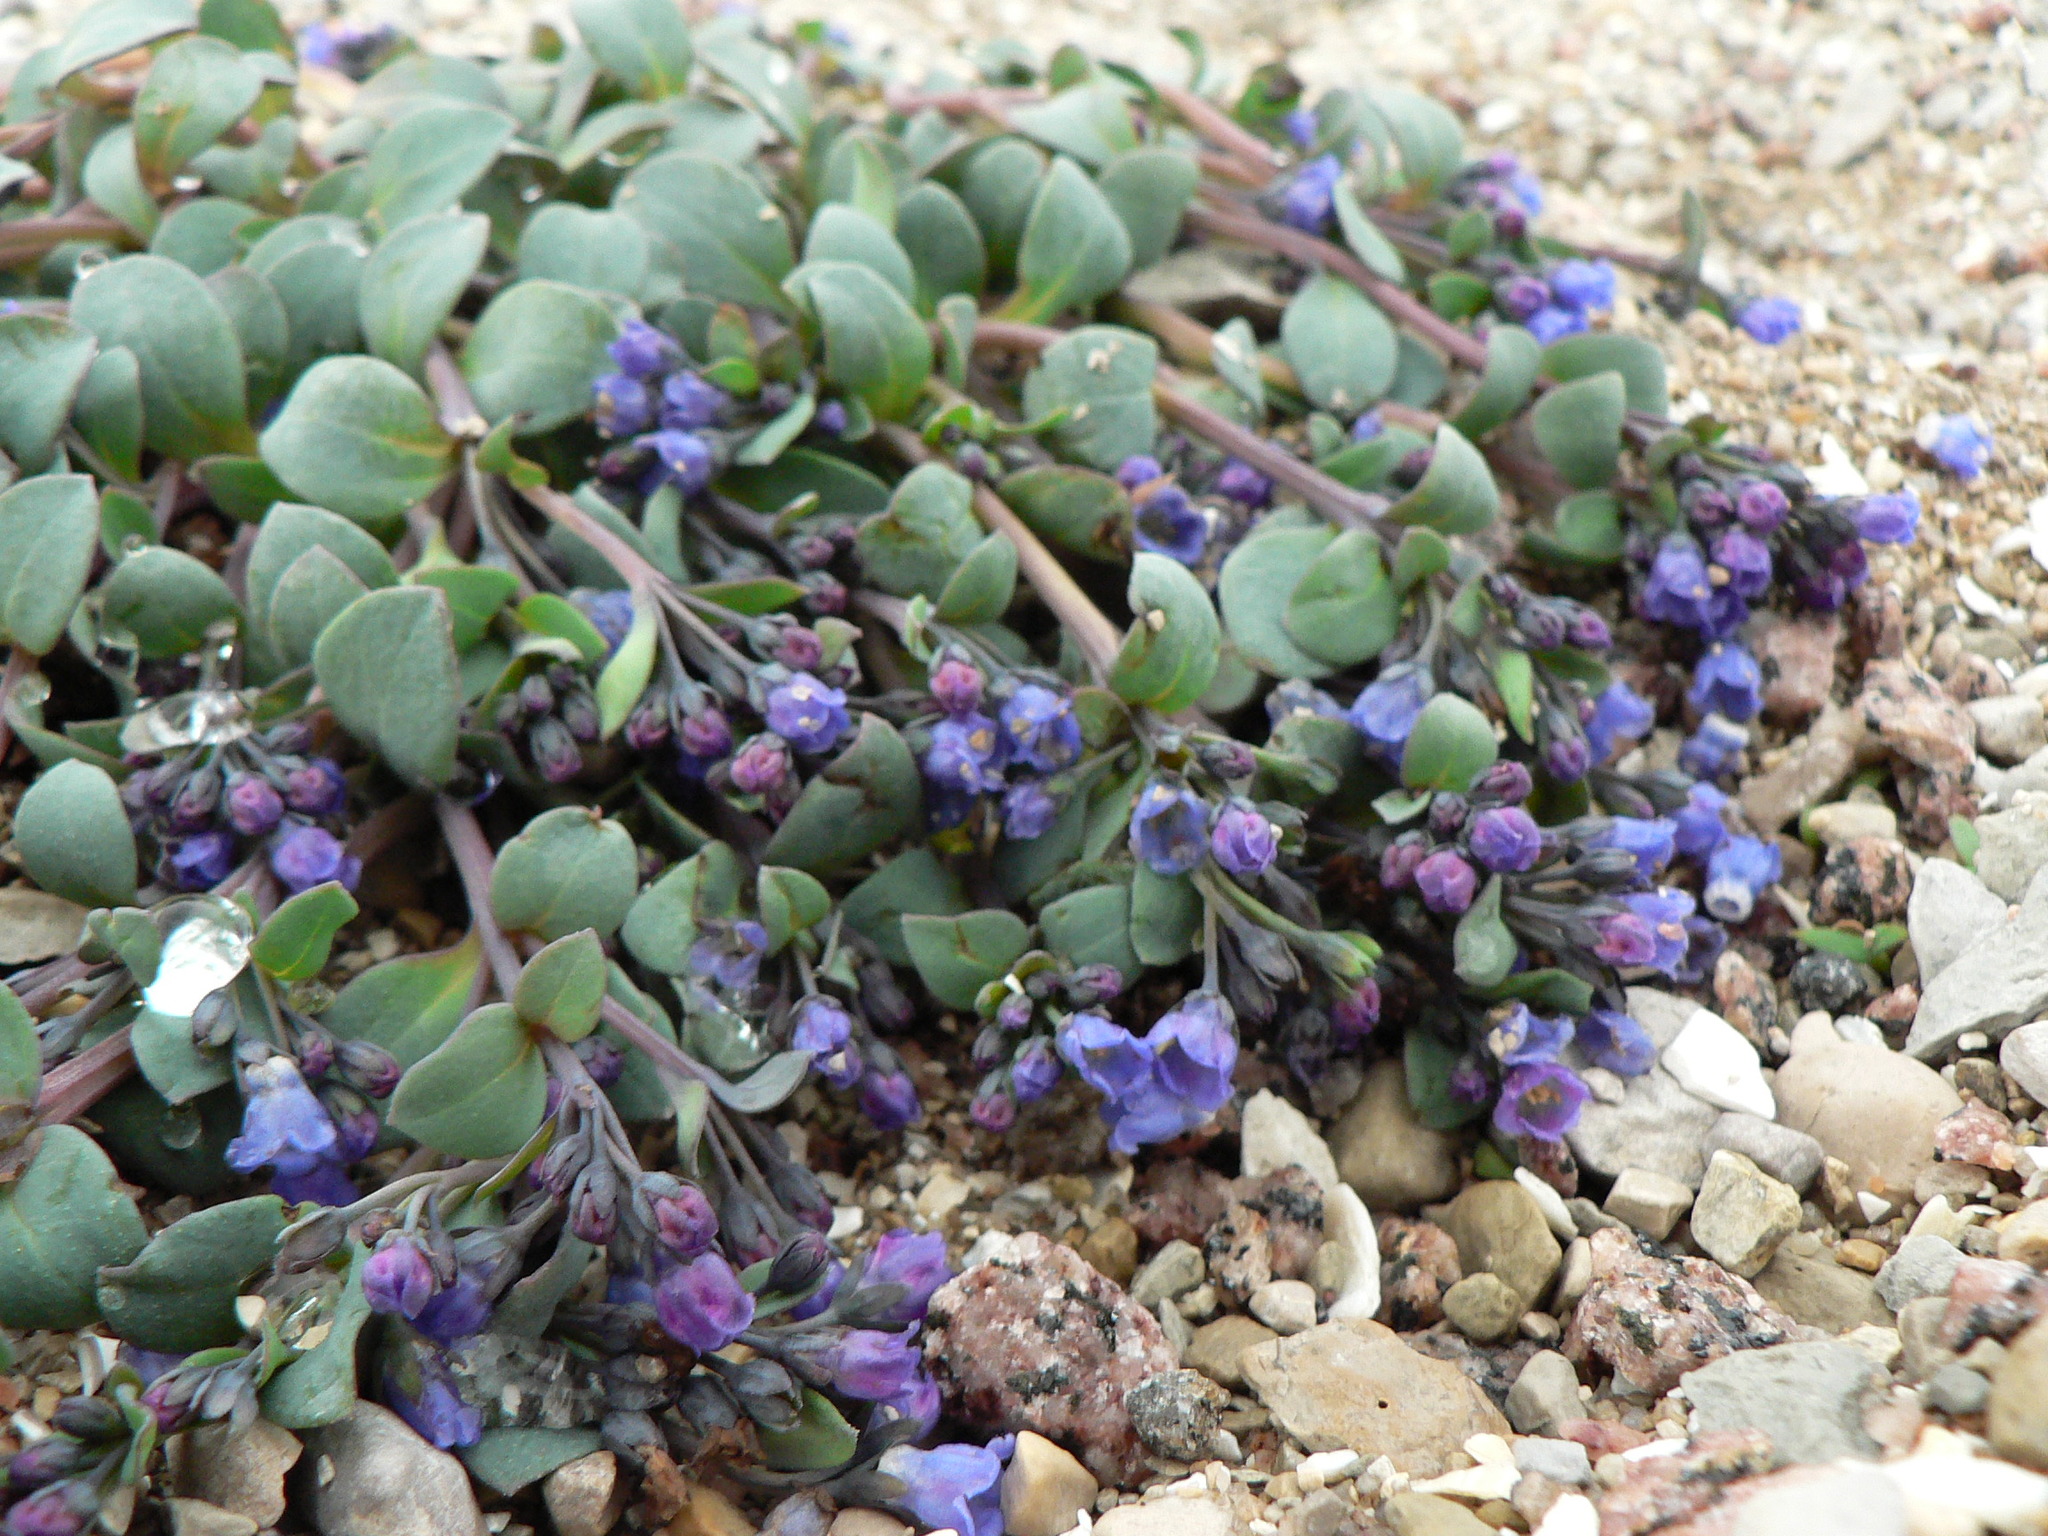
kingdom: Plantae
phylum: Tracheophyta
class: Magnoliopsida
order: Boraginales
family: Boraginaceae
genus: Mertensia
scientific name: Mertensia maritima
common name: Oysterplant
